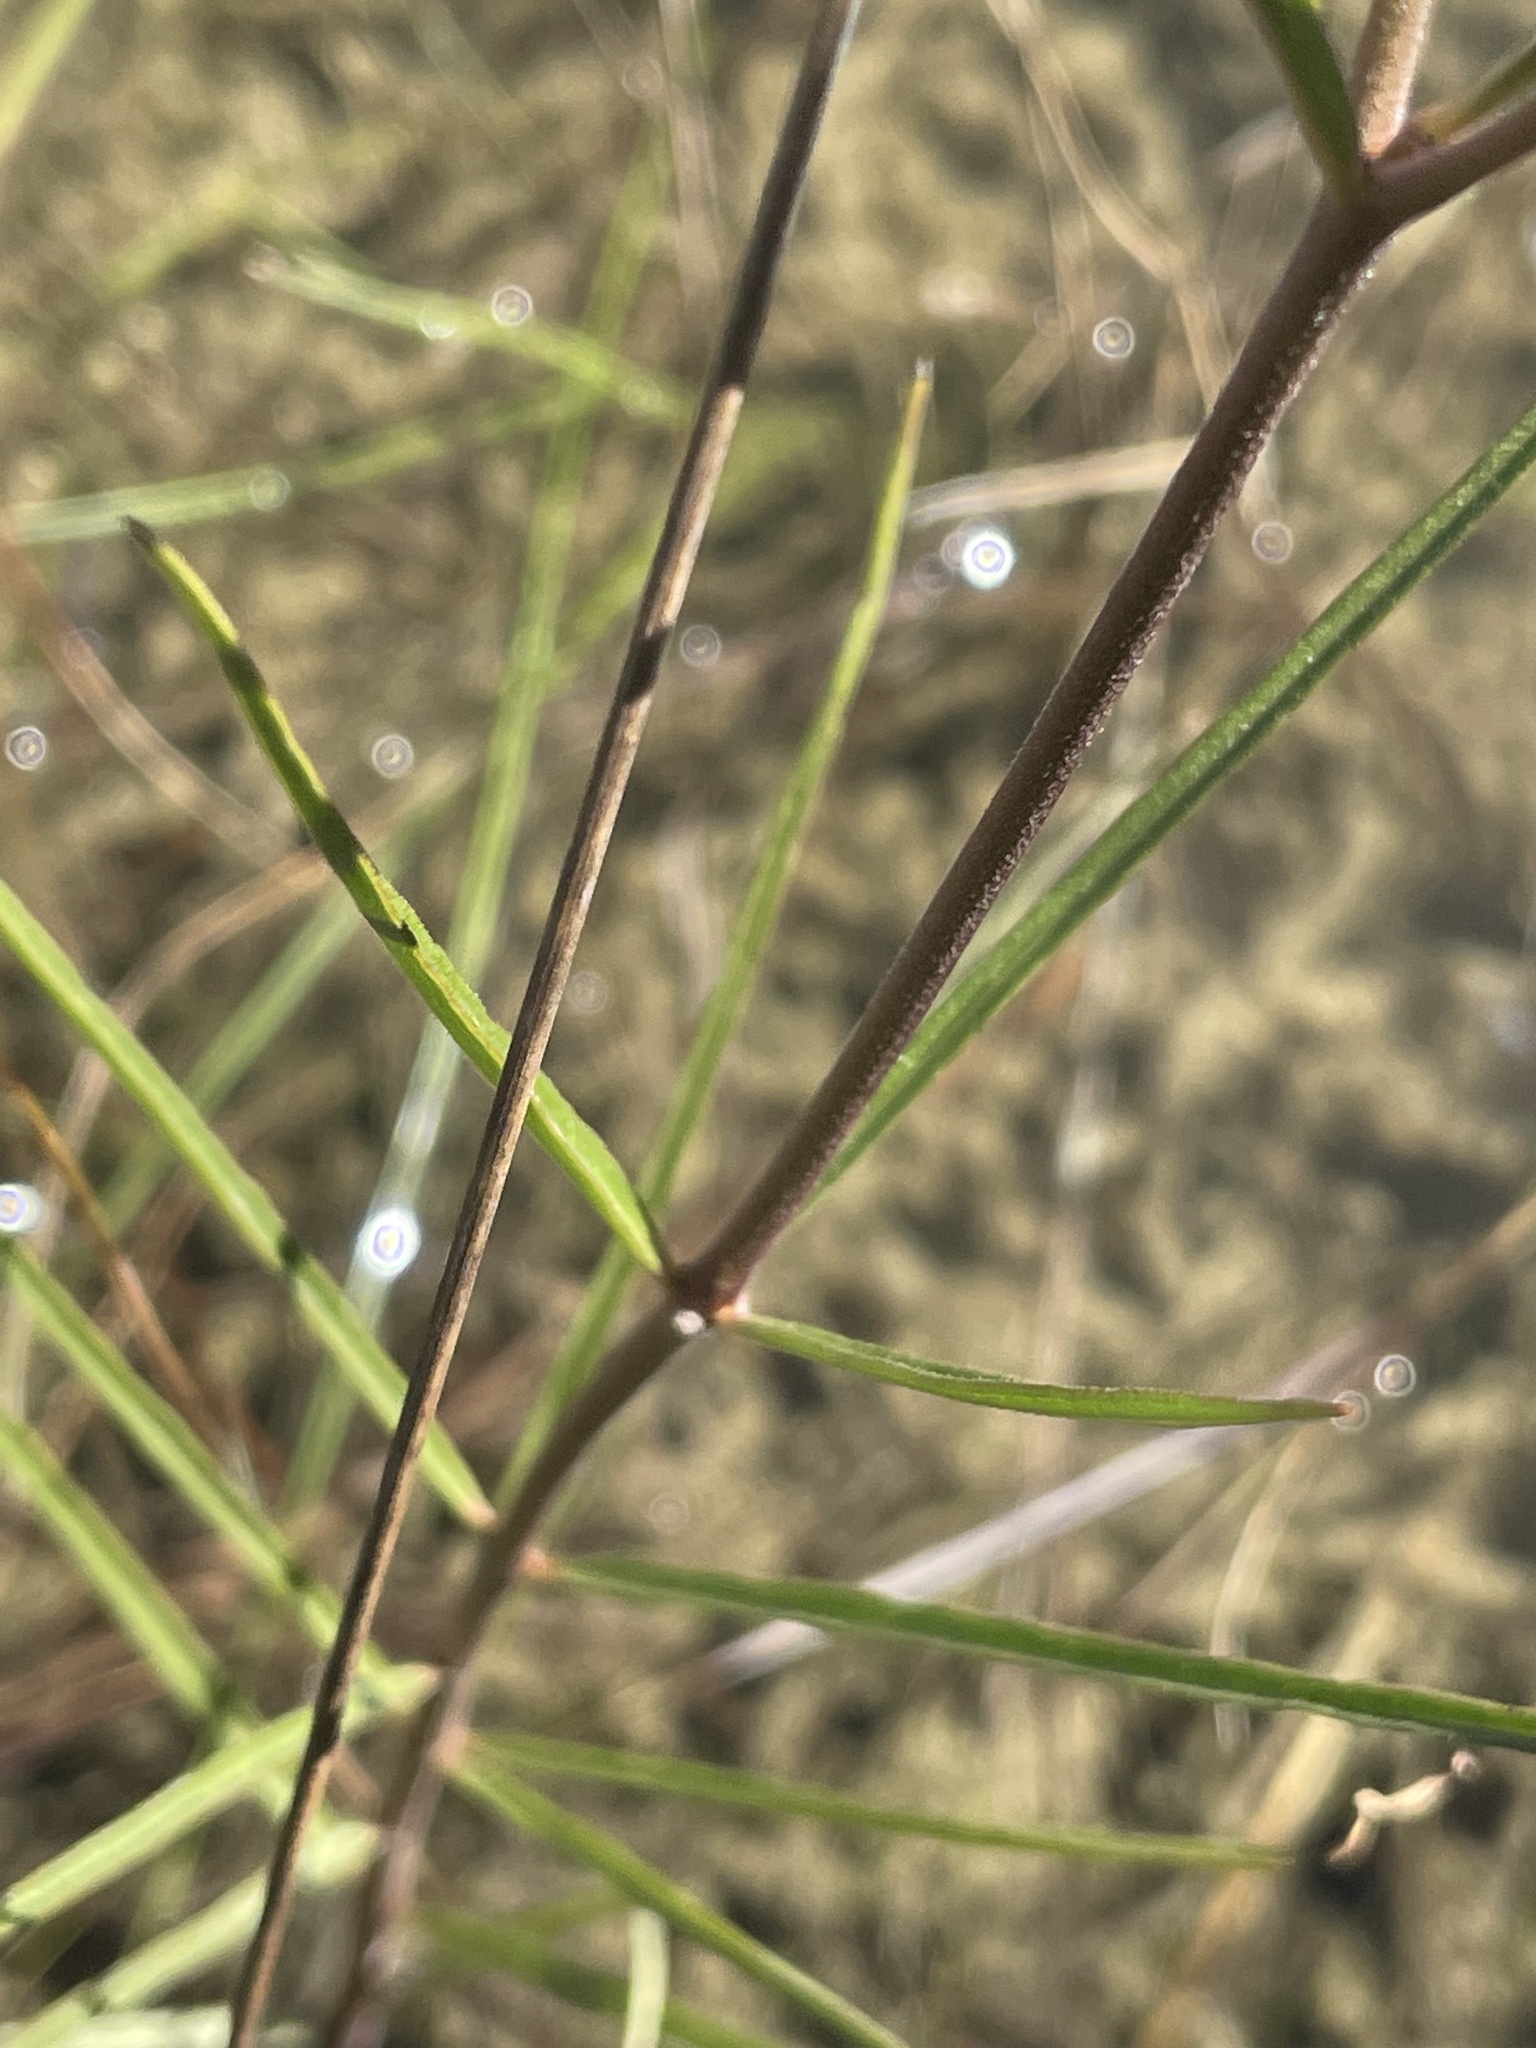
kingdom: Plantae
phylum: Tracheophyta
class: Magnoliopsida
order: Gentianales
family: Apocynaceae
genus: Asclepias
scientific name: Asclepias longifolia
